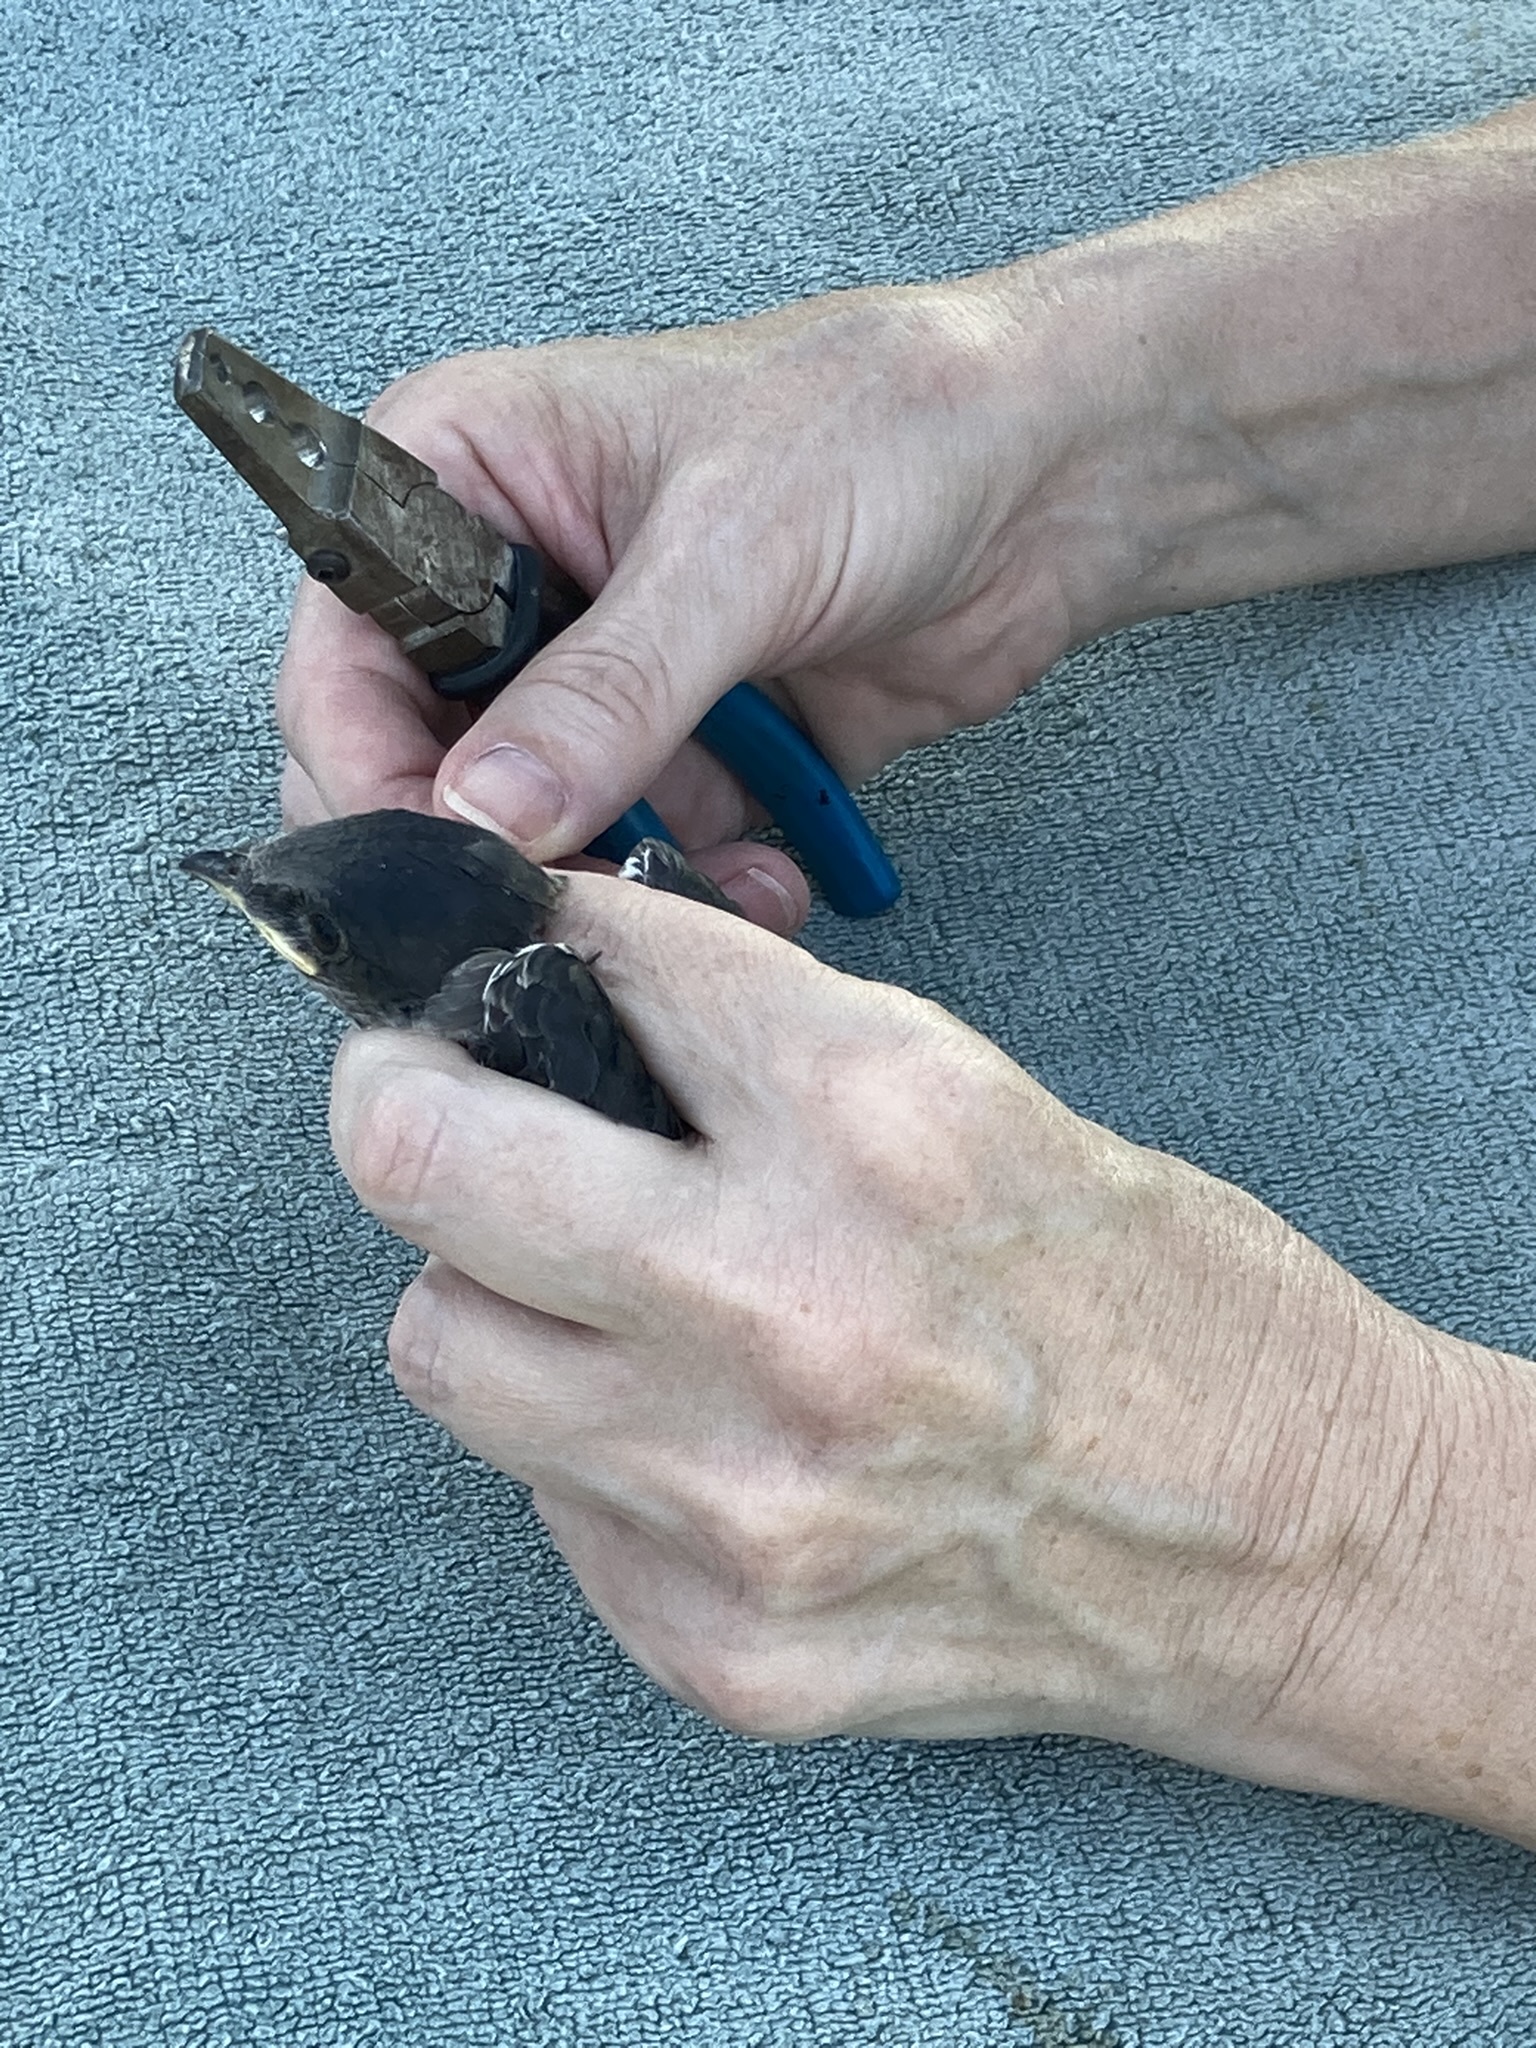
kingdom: Animalia
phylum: Chordata
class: Aves
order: Passeriformes
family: Hirundinidae
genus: Progne
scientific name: Progne subis
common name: Purple martin
